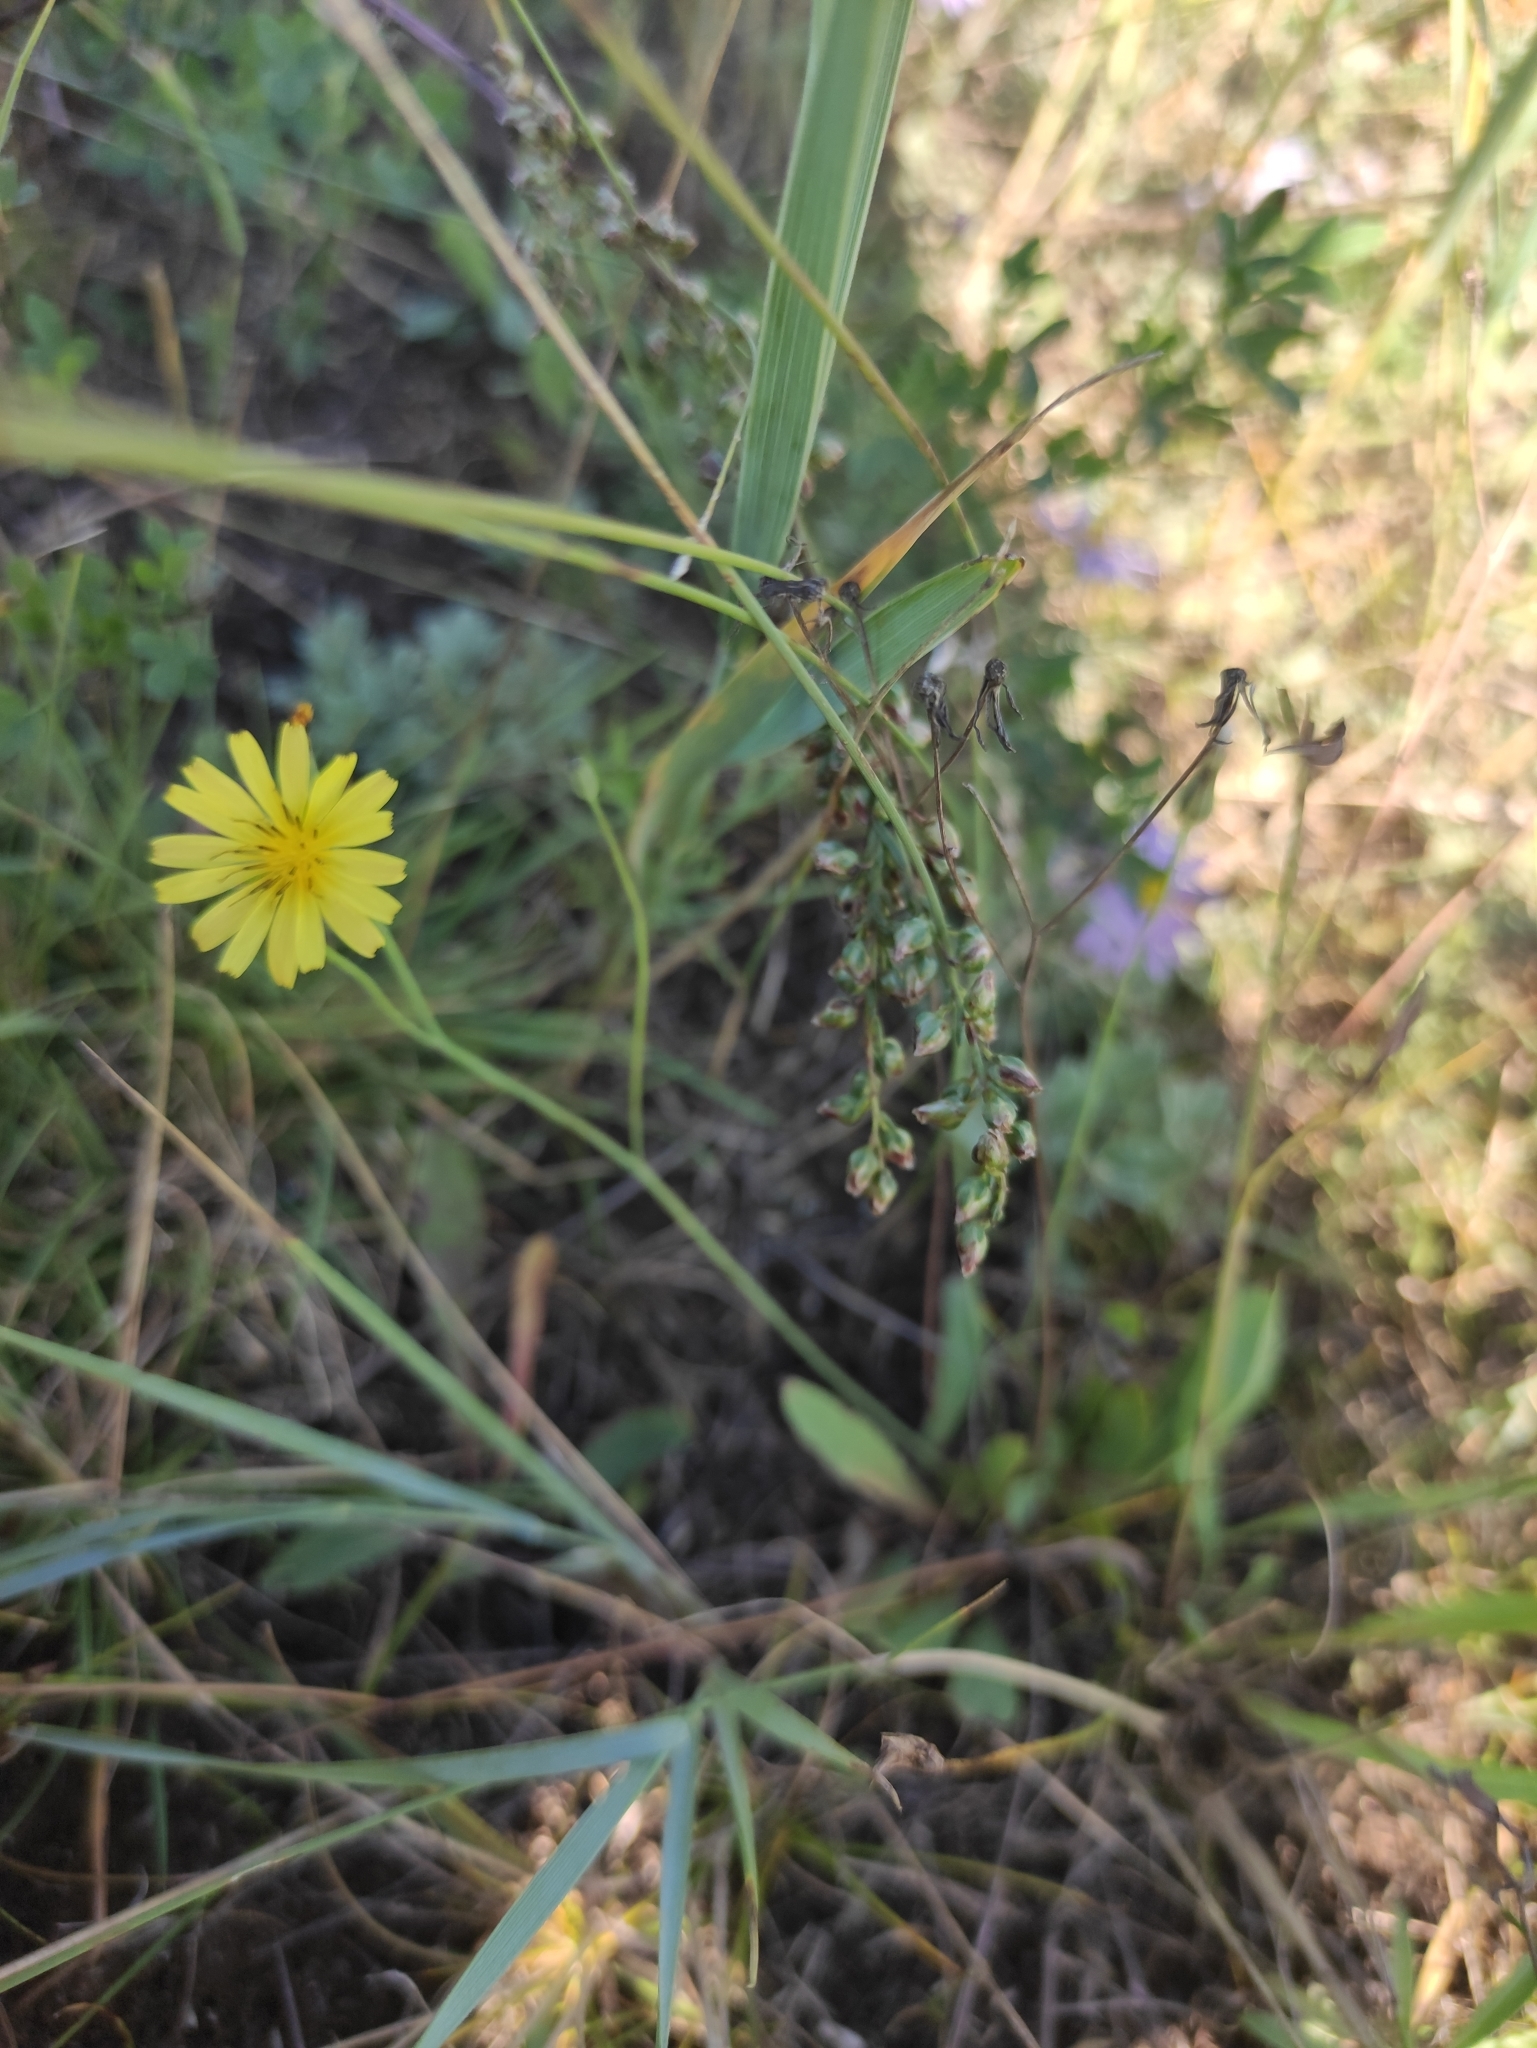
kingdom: Plantae
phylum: Tracheophyta
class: Magnoliopsida
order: Asterales
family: Asteraceae
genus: Ixeris
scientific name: Ixeris chinensis
